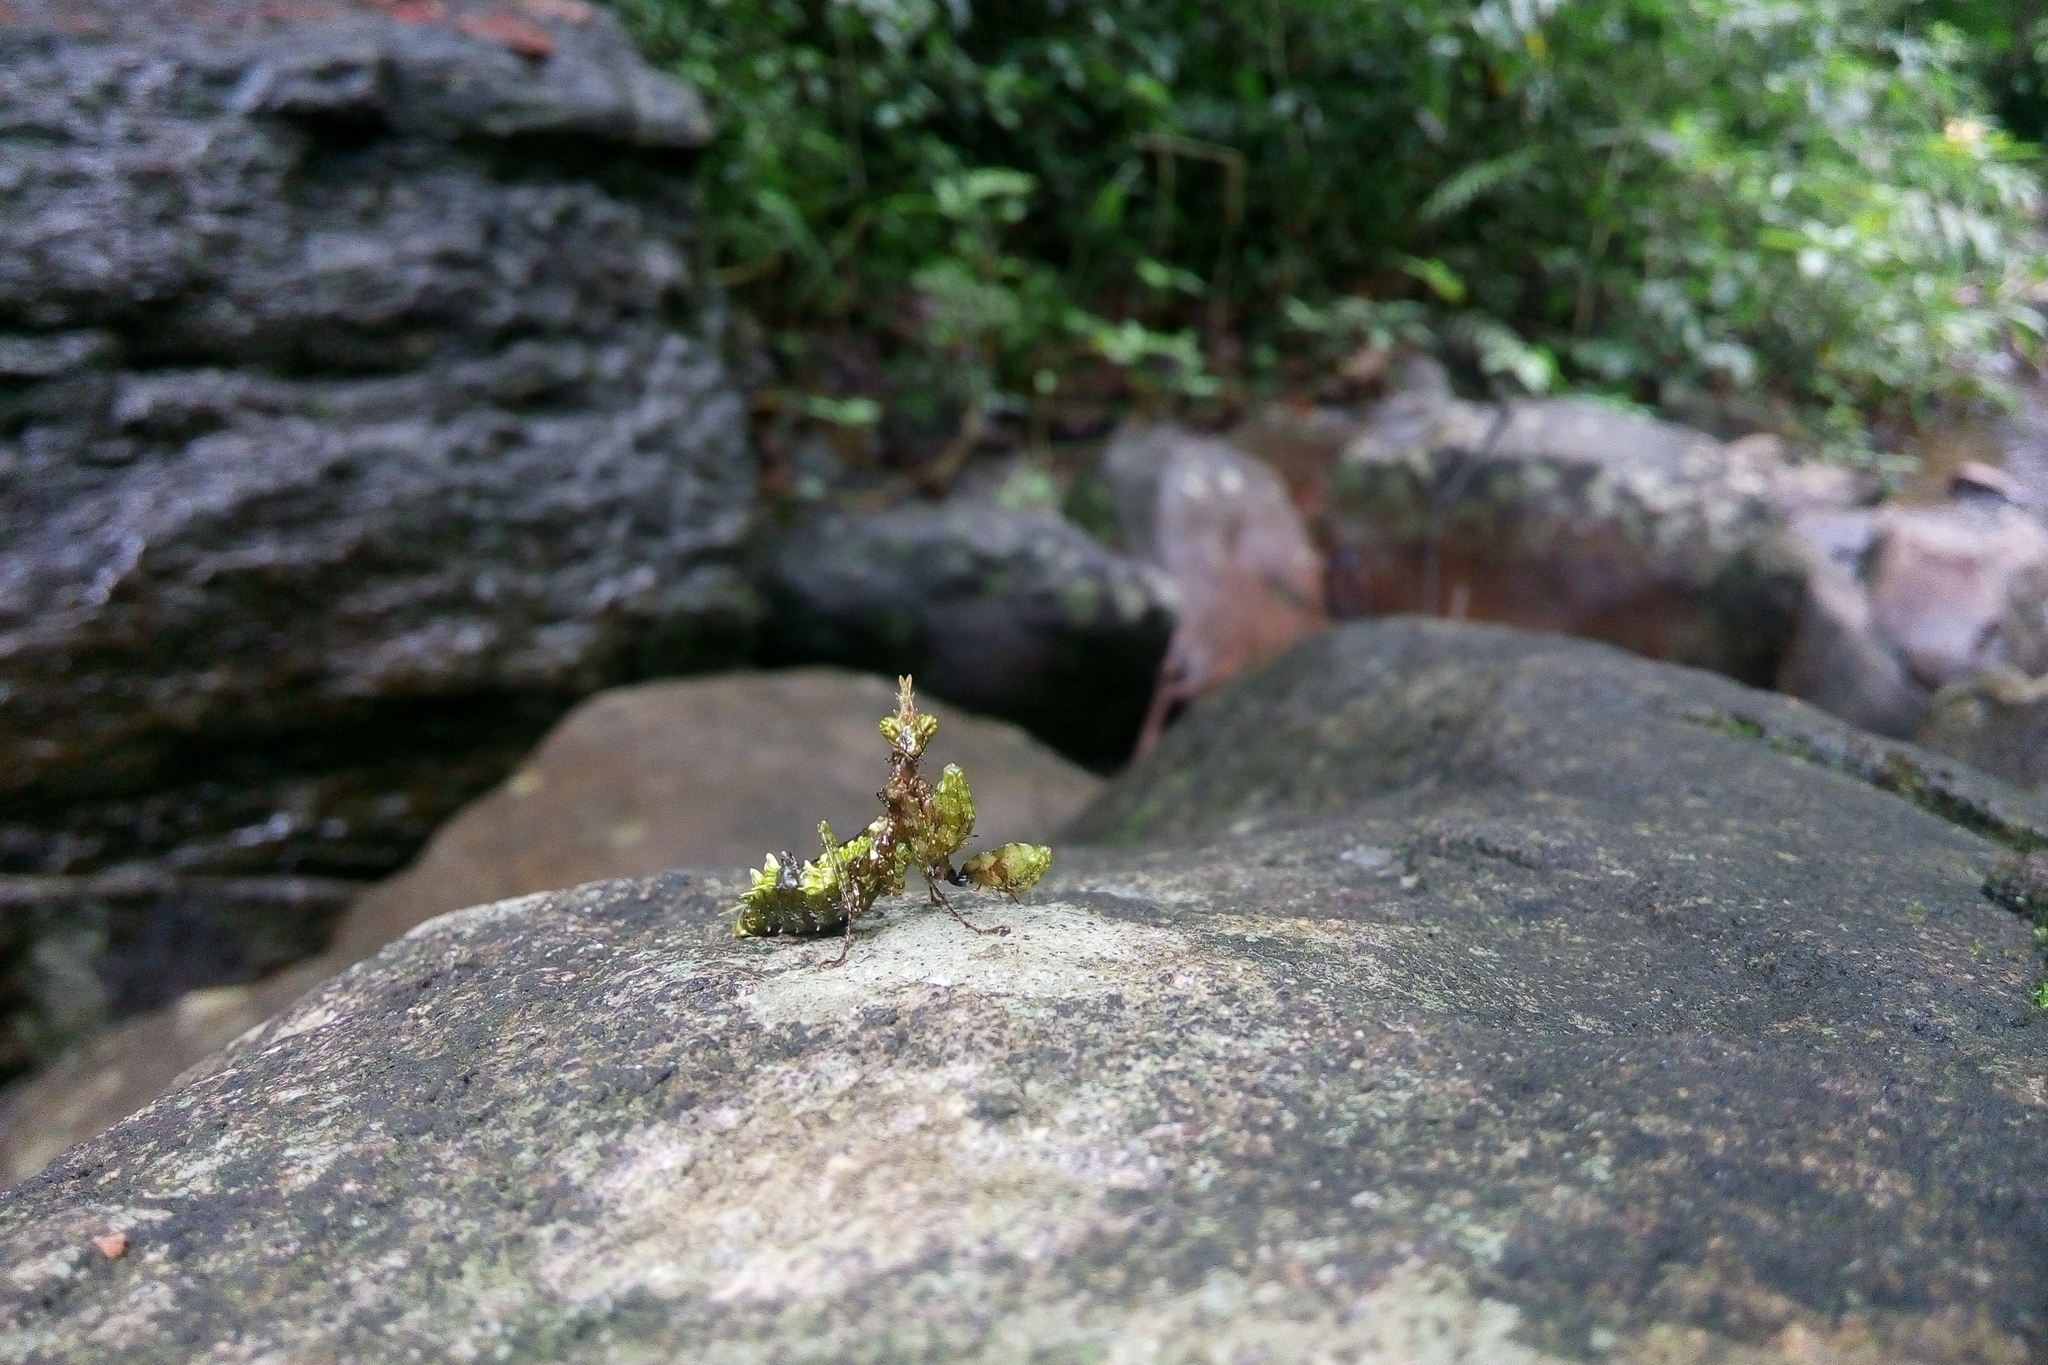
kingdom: Animalia
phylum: Arthropoda
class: Insecta
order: Mantodea
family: Hymenopodidae
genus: Ceratomantis
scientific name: Ceratomantis ghatei
